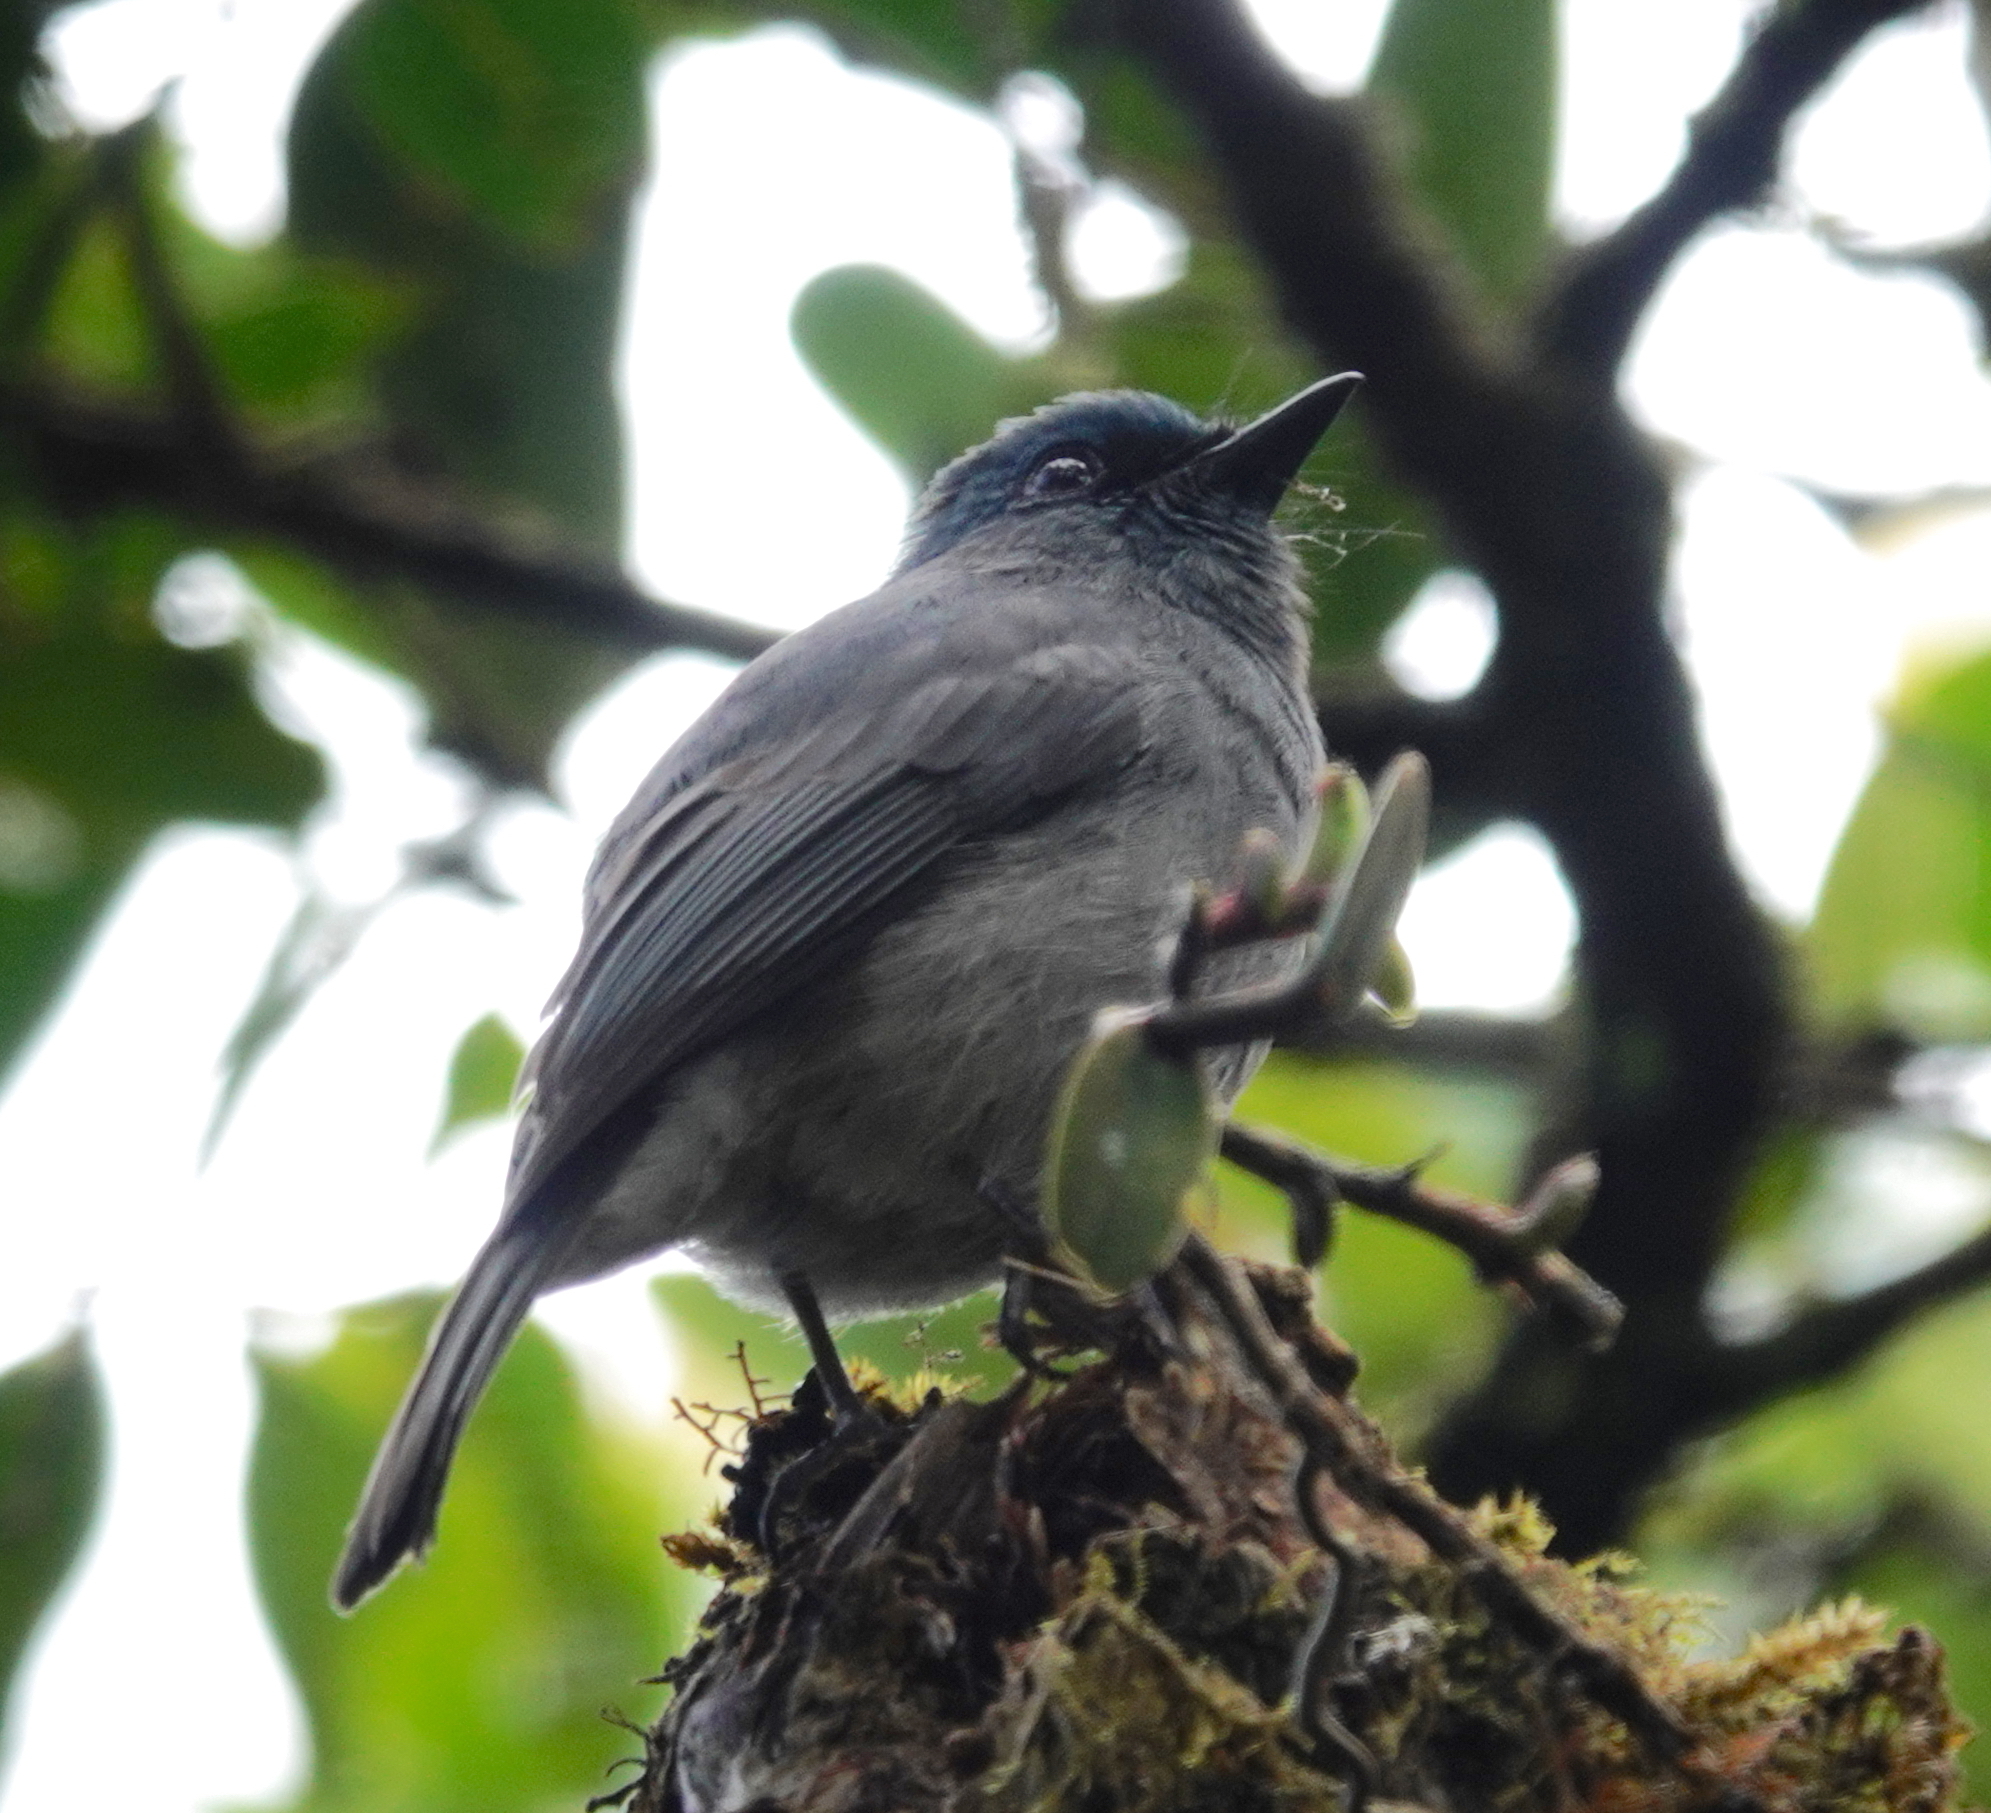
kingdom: Animalia
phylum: Chordata
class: Aves
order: Passeriformes
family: Muscicapidae
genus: Eumyias
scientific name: Eumyias sordidus
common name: Dull-blue flycatcher
